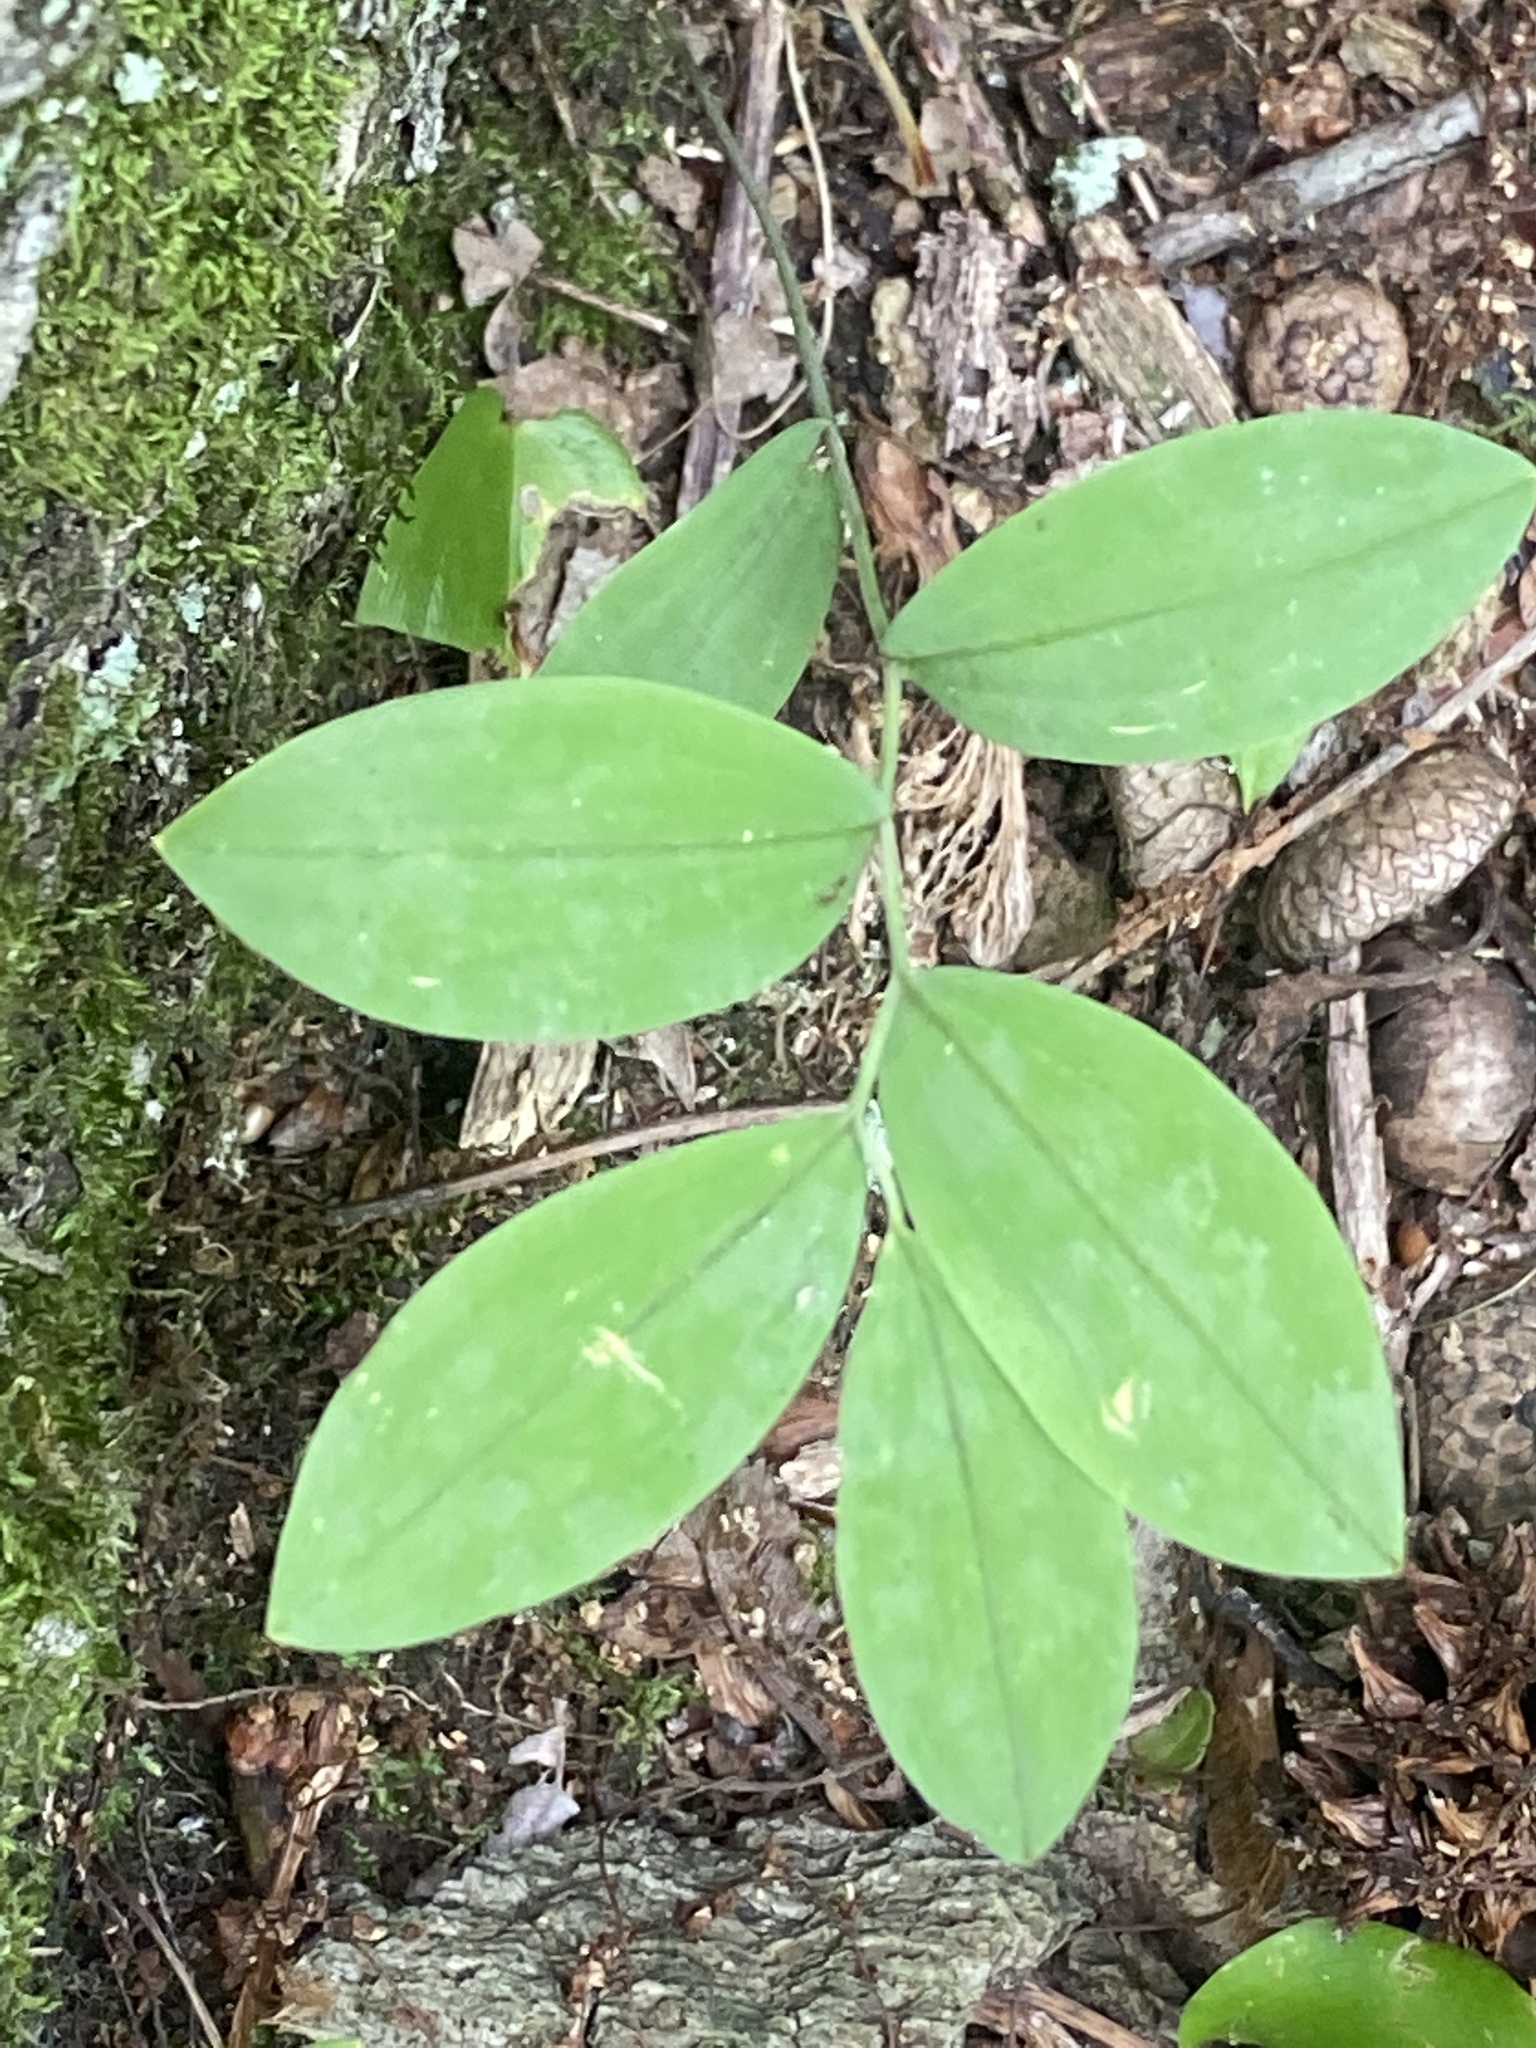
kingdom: Plantae
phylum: Tracheophyta
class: Liliopsida
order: Liliales
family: Colchicaceae
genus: Uvularia
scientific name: Uvularia sessilifolia
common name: Straw-lily
